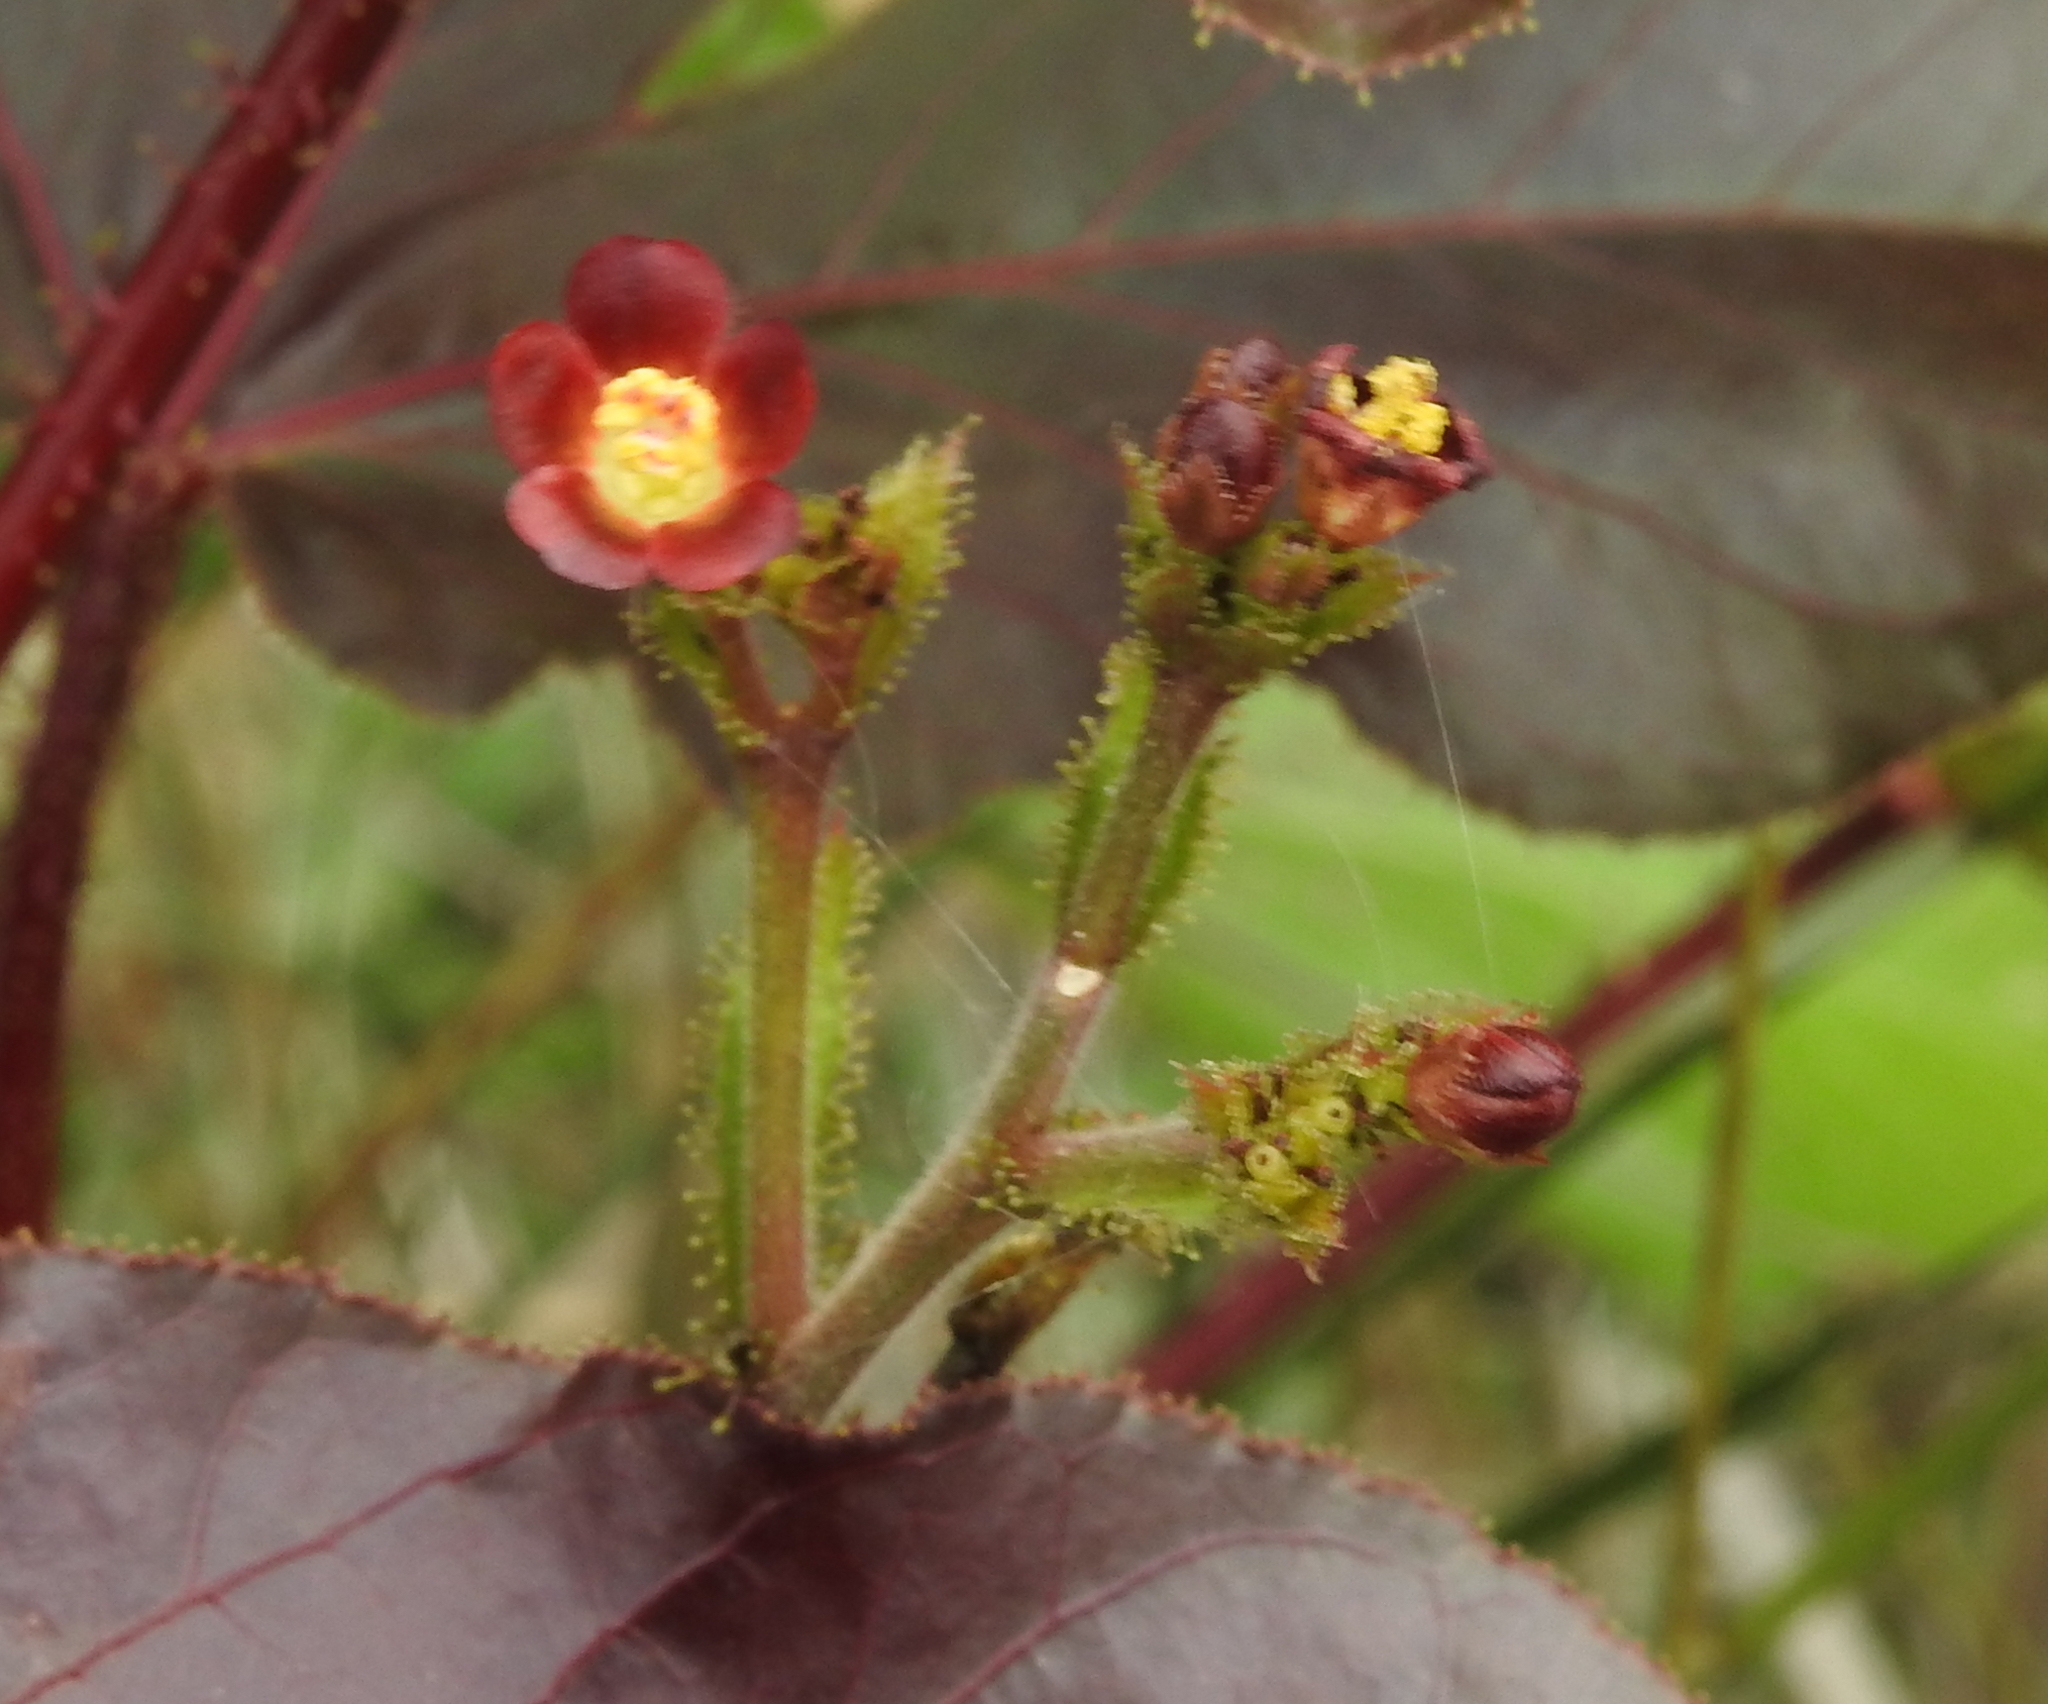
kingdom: Plantae
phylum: Tracheophyta
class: Magnoliopsida
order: Malpighiales
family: Euphorbiaceae
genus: Jatropha
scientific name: Jatropha gossypiifolia
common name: Bellyache bush
